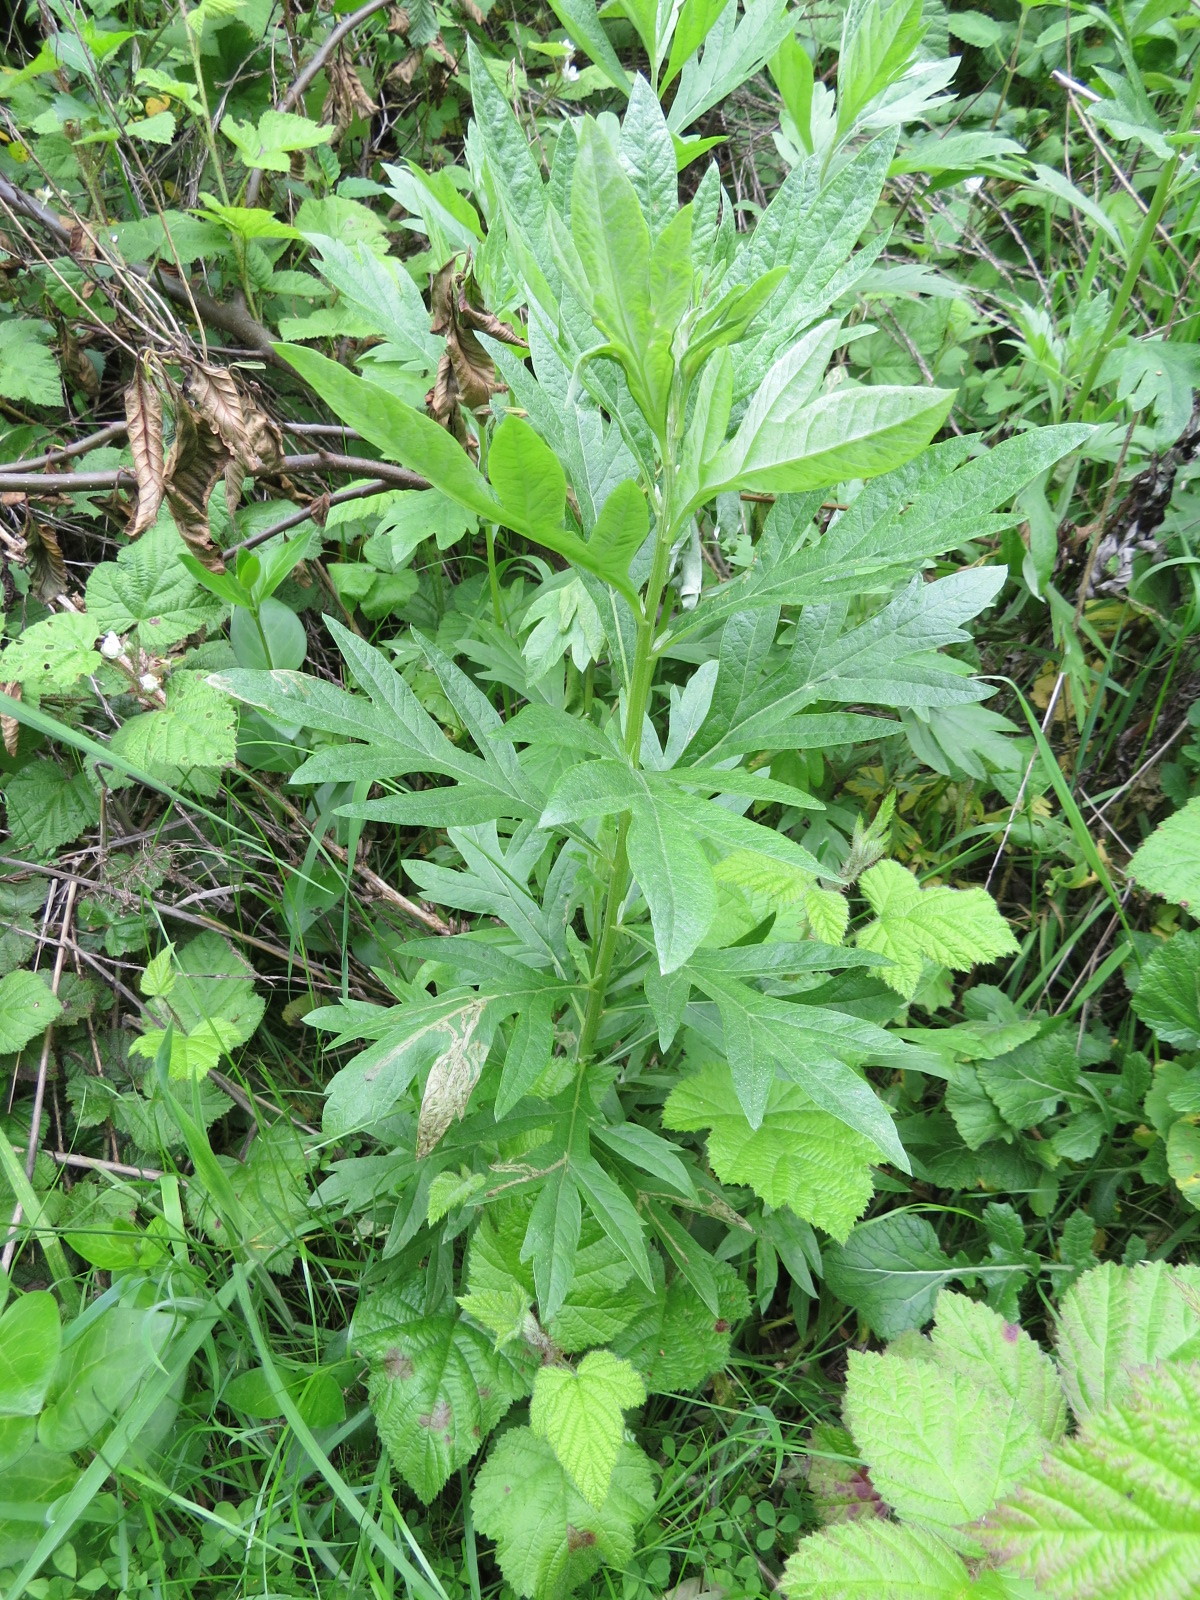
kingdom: Plantae
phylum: Tracheophyta
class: Magnoliopsida
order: Asterales
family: Asteraceae
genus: Artemisia
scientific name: Artemisia douglasiana
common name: Northwest mugwort
